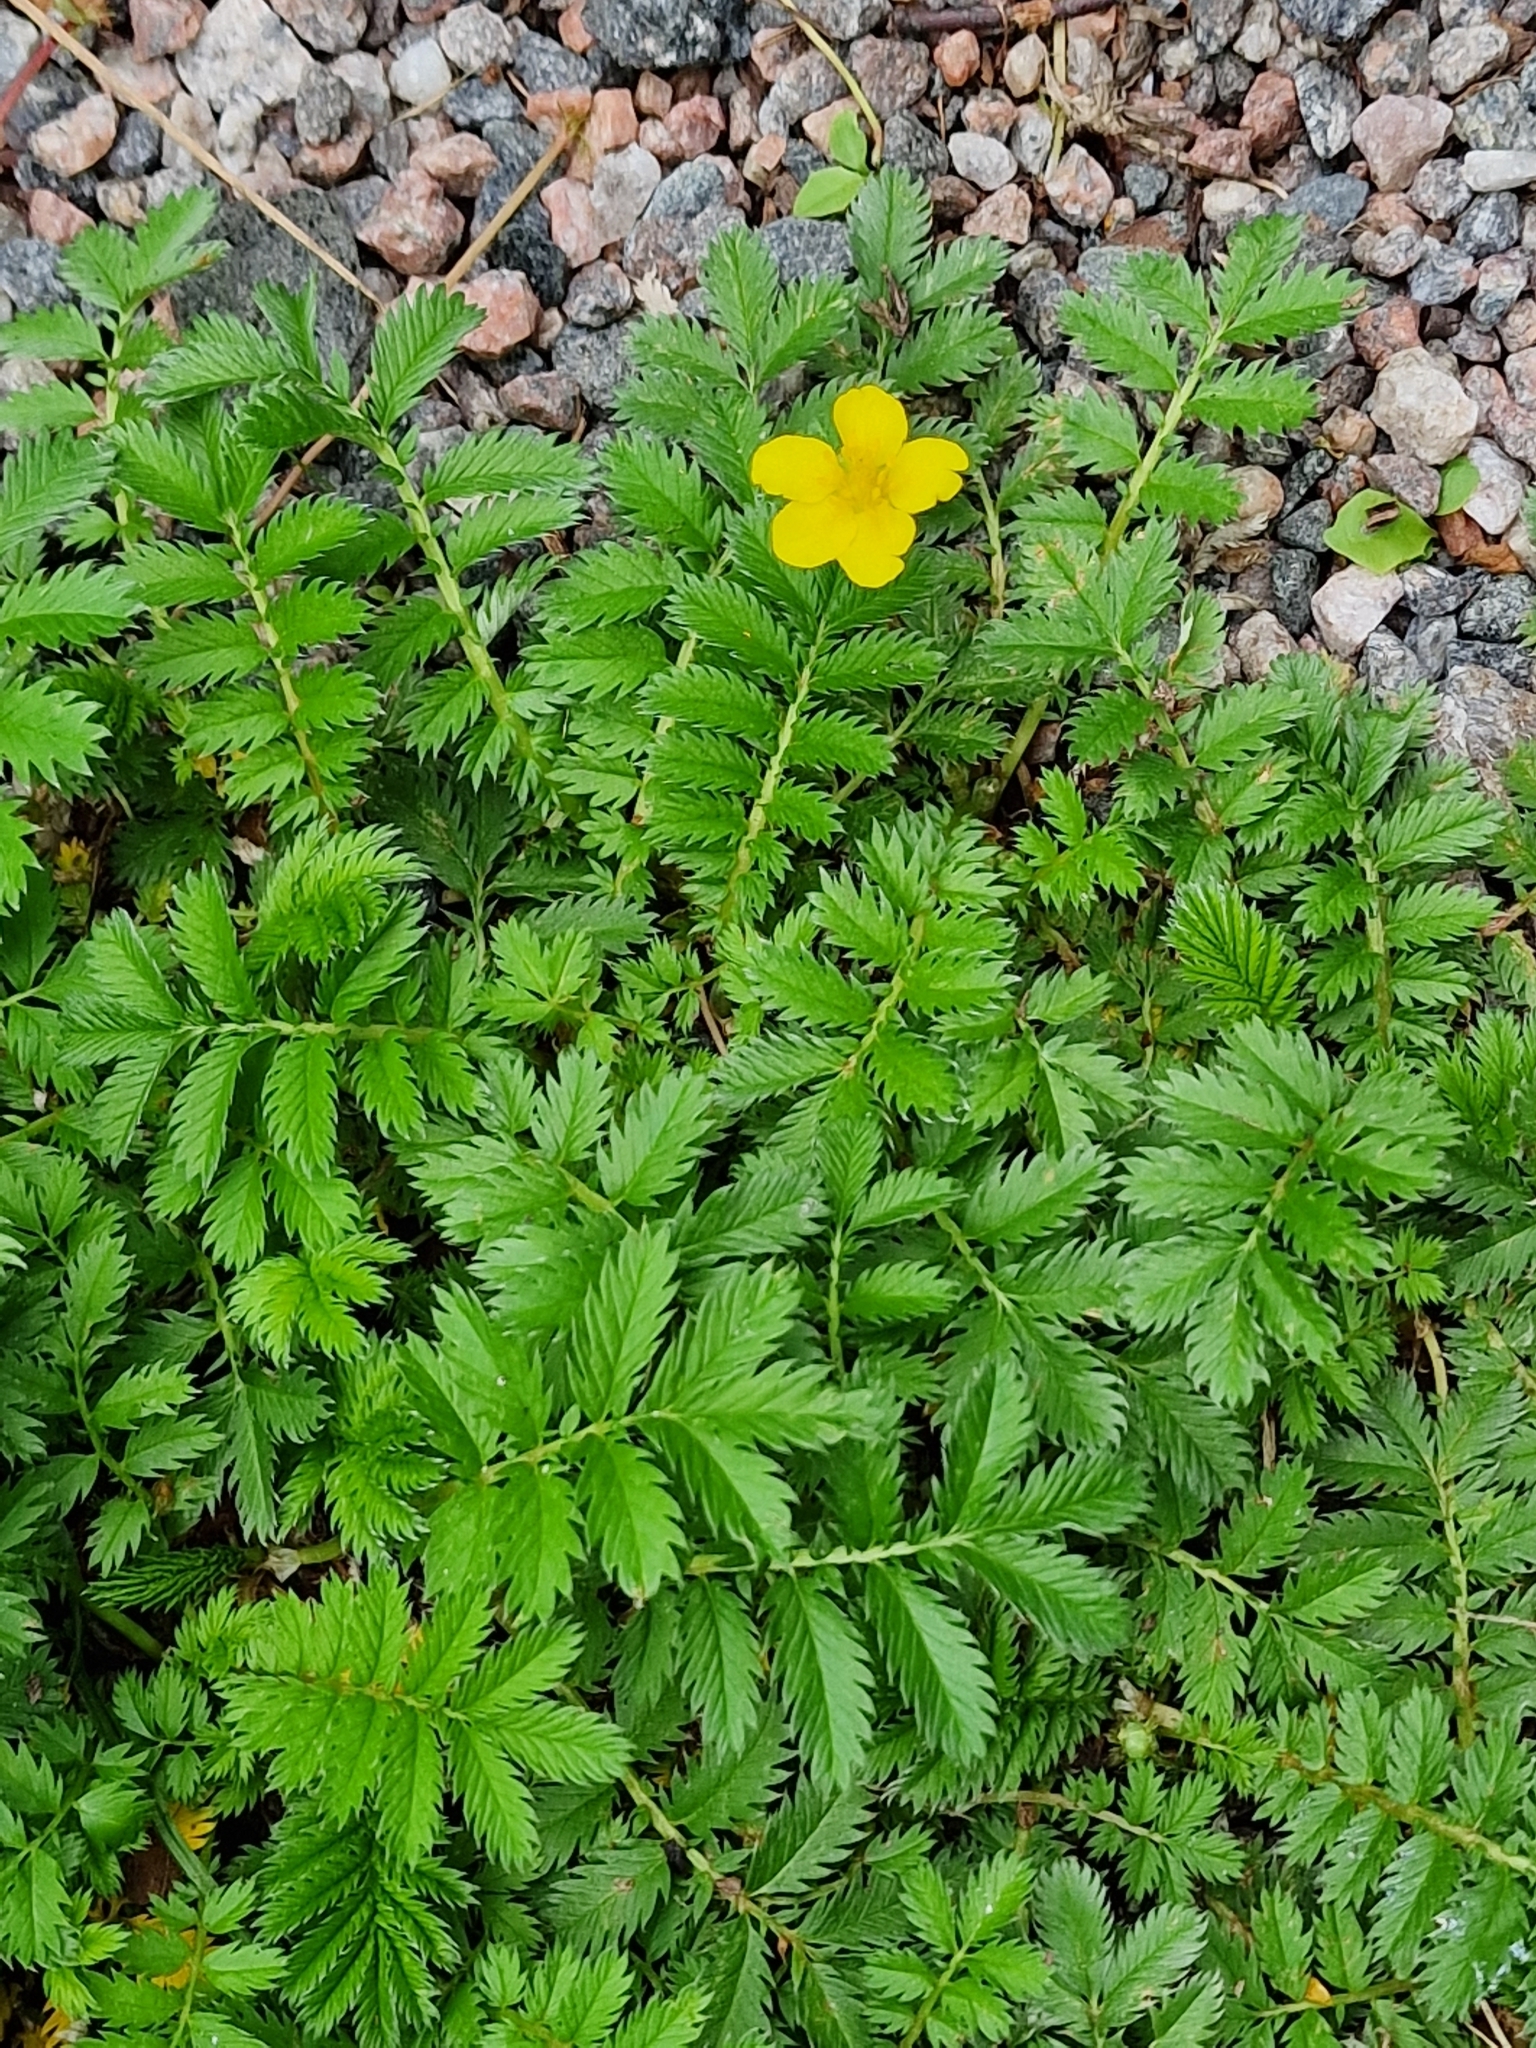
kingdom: Plantae
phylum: Tracheophyta
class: Magnoliopsida
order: Rosales
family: Rosaceae
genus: Argentina
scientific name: Argentina anserina
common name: Common silverweed
